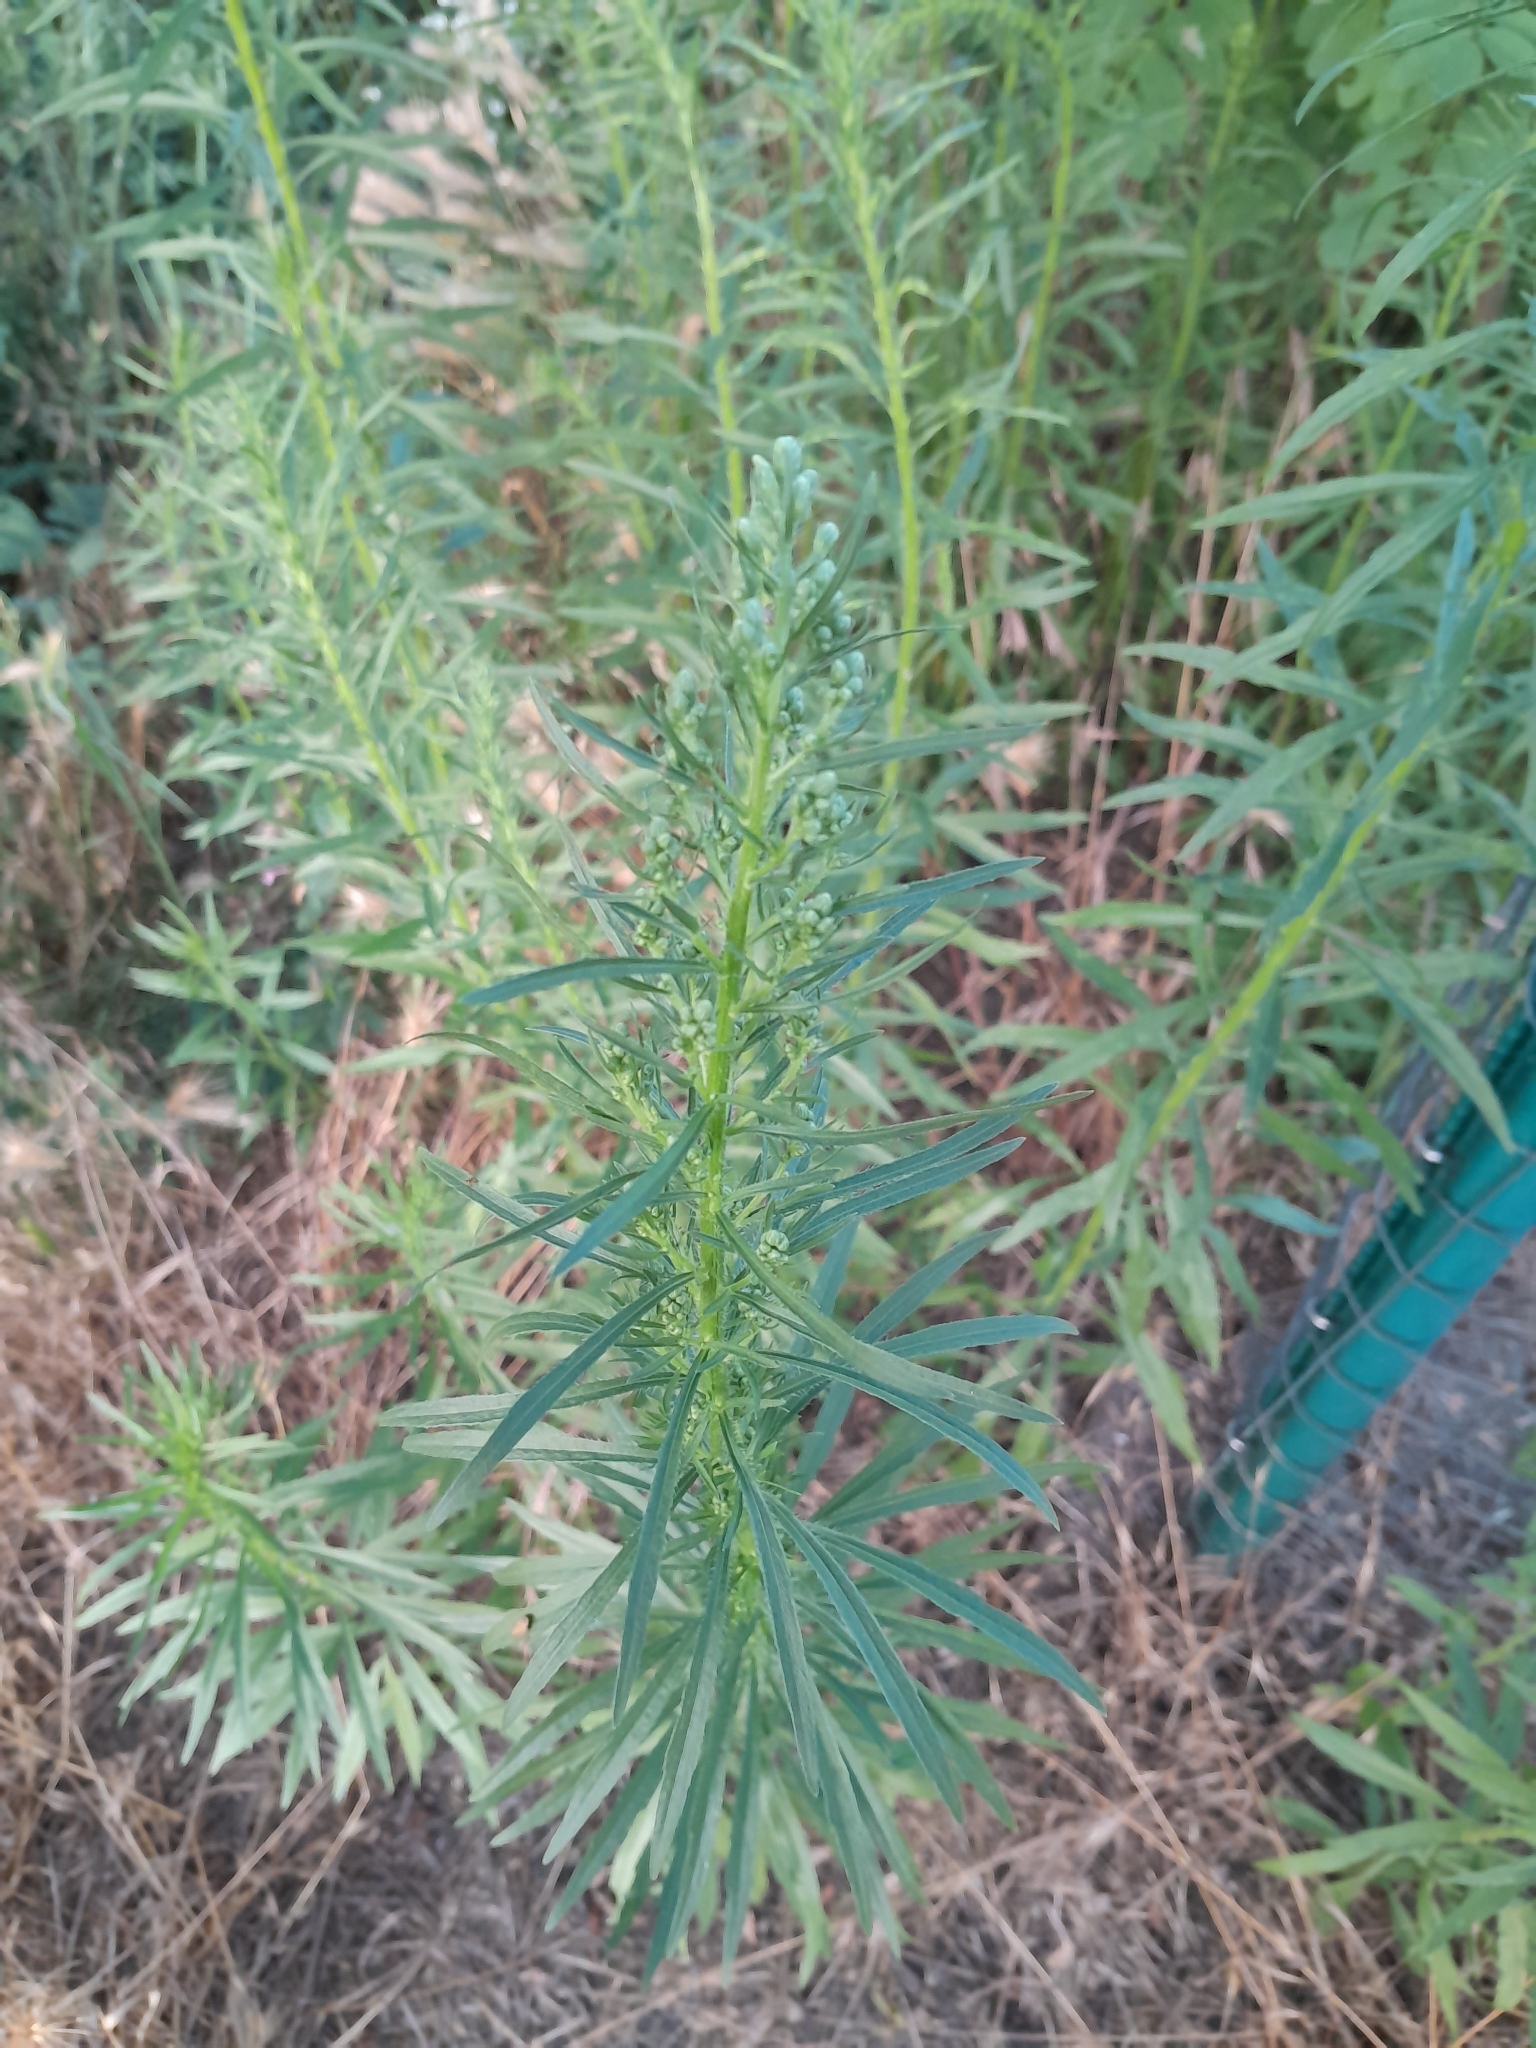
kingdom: Plantae
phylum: Tracheophyta
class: Magnoliopsida
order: Asterales
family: Asteraceae
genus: Erigeron
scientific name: Erigeron canadensis
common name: Canadian fleabane
